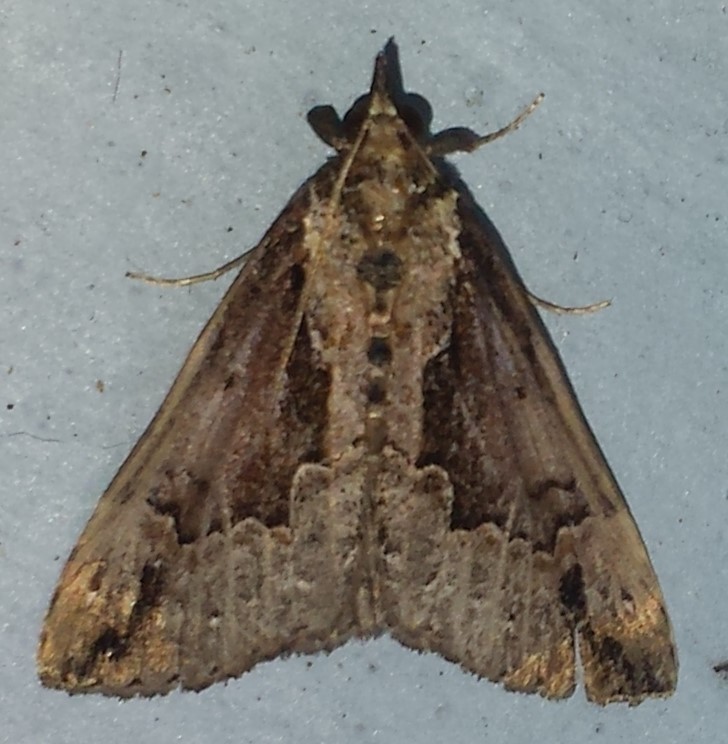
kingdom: Animalia
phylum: Arthropoda
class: Insecta
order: Lepidoptera
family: Erebidae
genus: Hypena
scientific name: Hypena baltimoralis
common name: Baltimore snout
